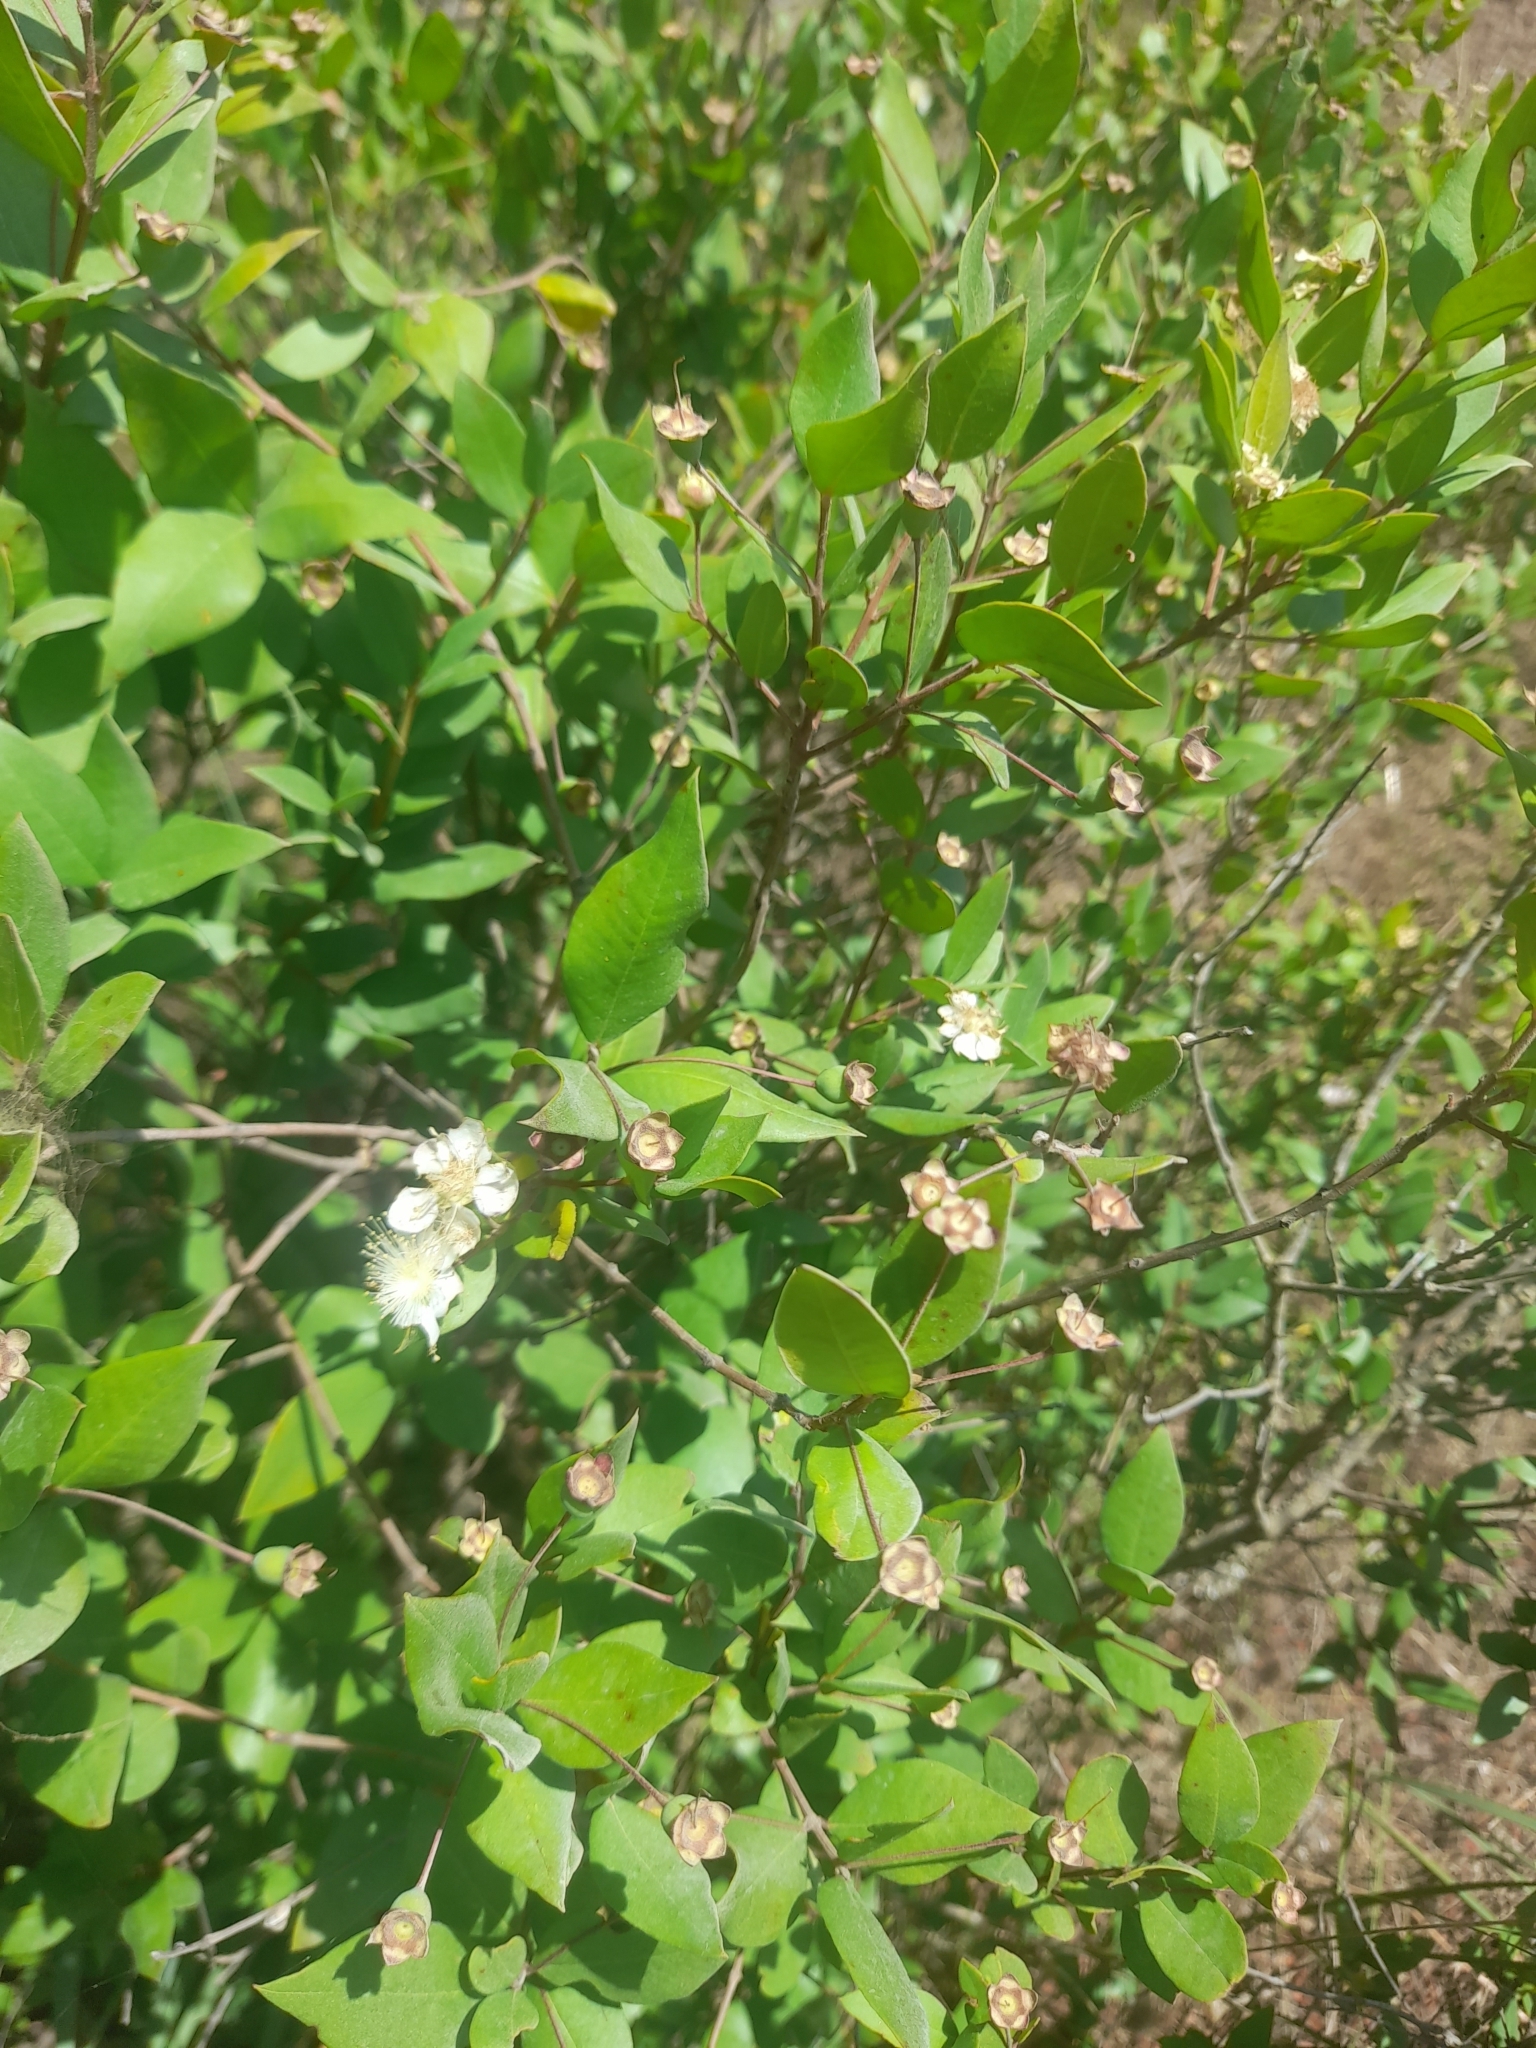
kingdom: Plantae
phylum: Tracheophyta
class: Magnoliopsida
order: Myrtales
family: Myrtaceae
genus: Myrtus
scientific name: Myrtus communis
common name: Myrtle
